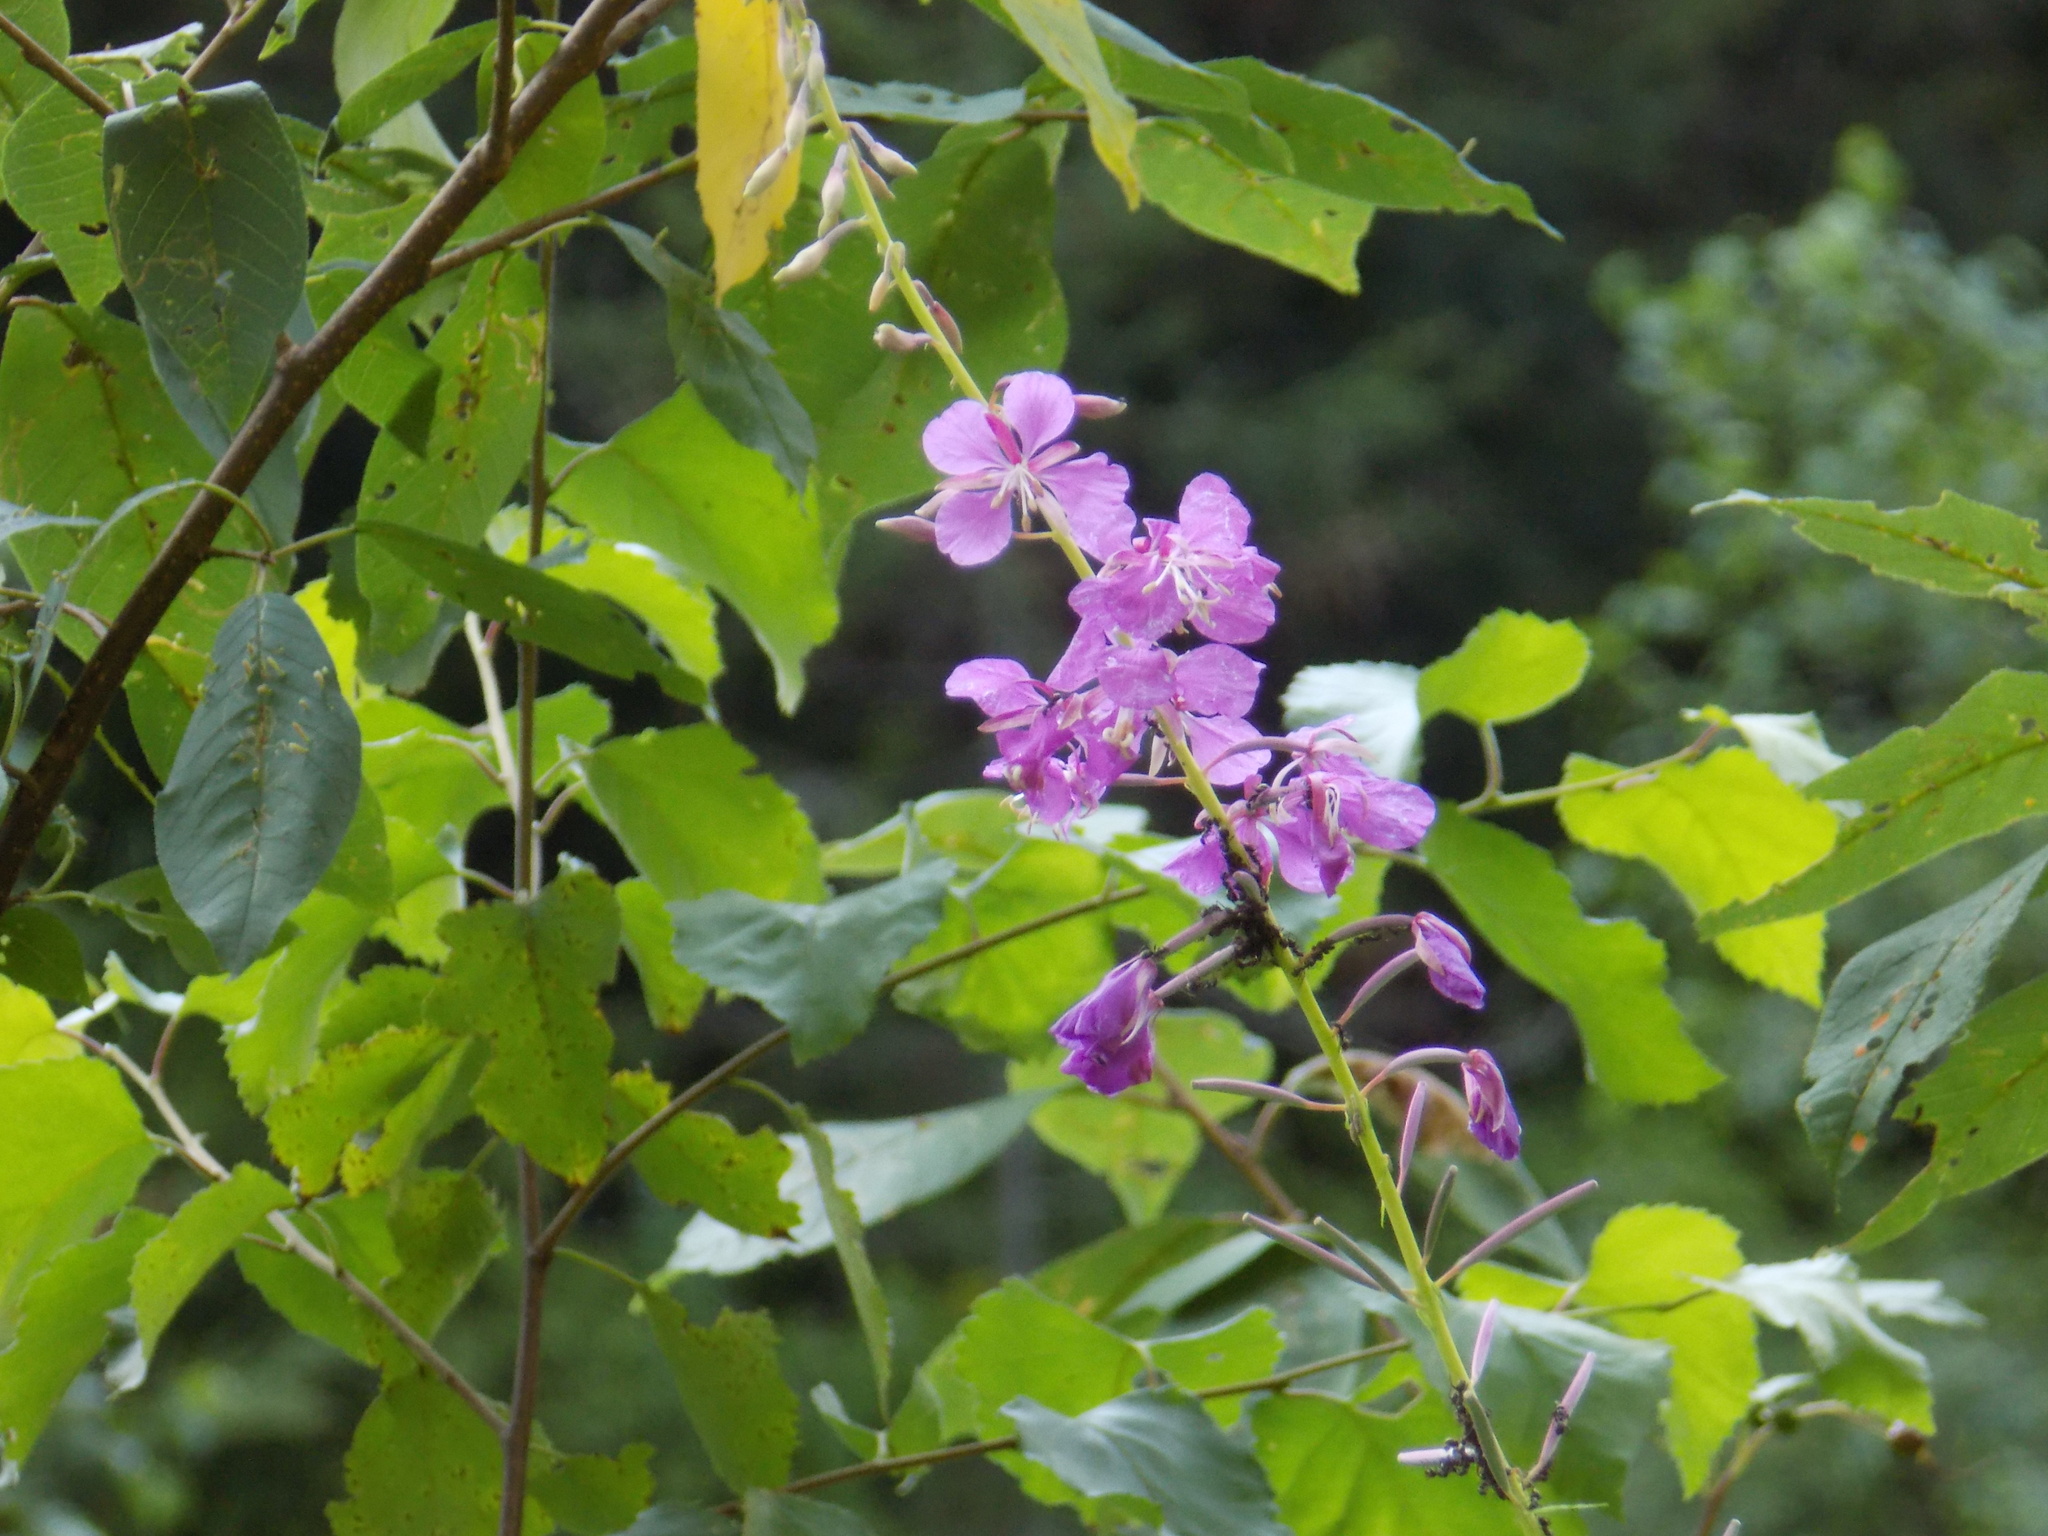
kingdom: Plantae
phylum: Tracheophyta
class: Magnoliopsida
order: Myrtales
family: Onagraceae
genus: Chamaenerion
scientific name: Chamaenerion angustifolium
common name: Fireweed
